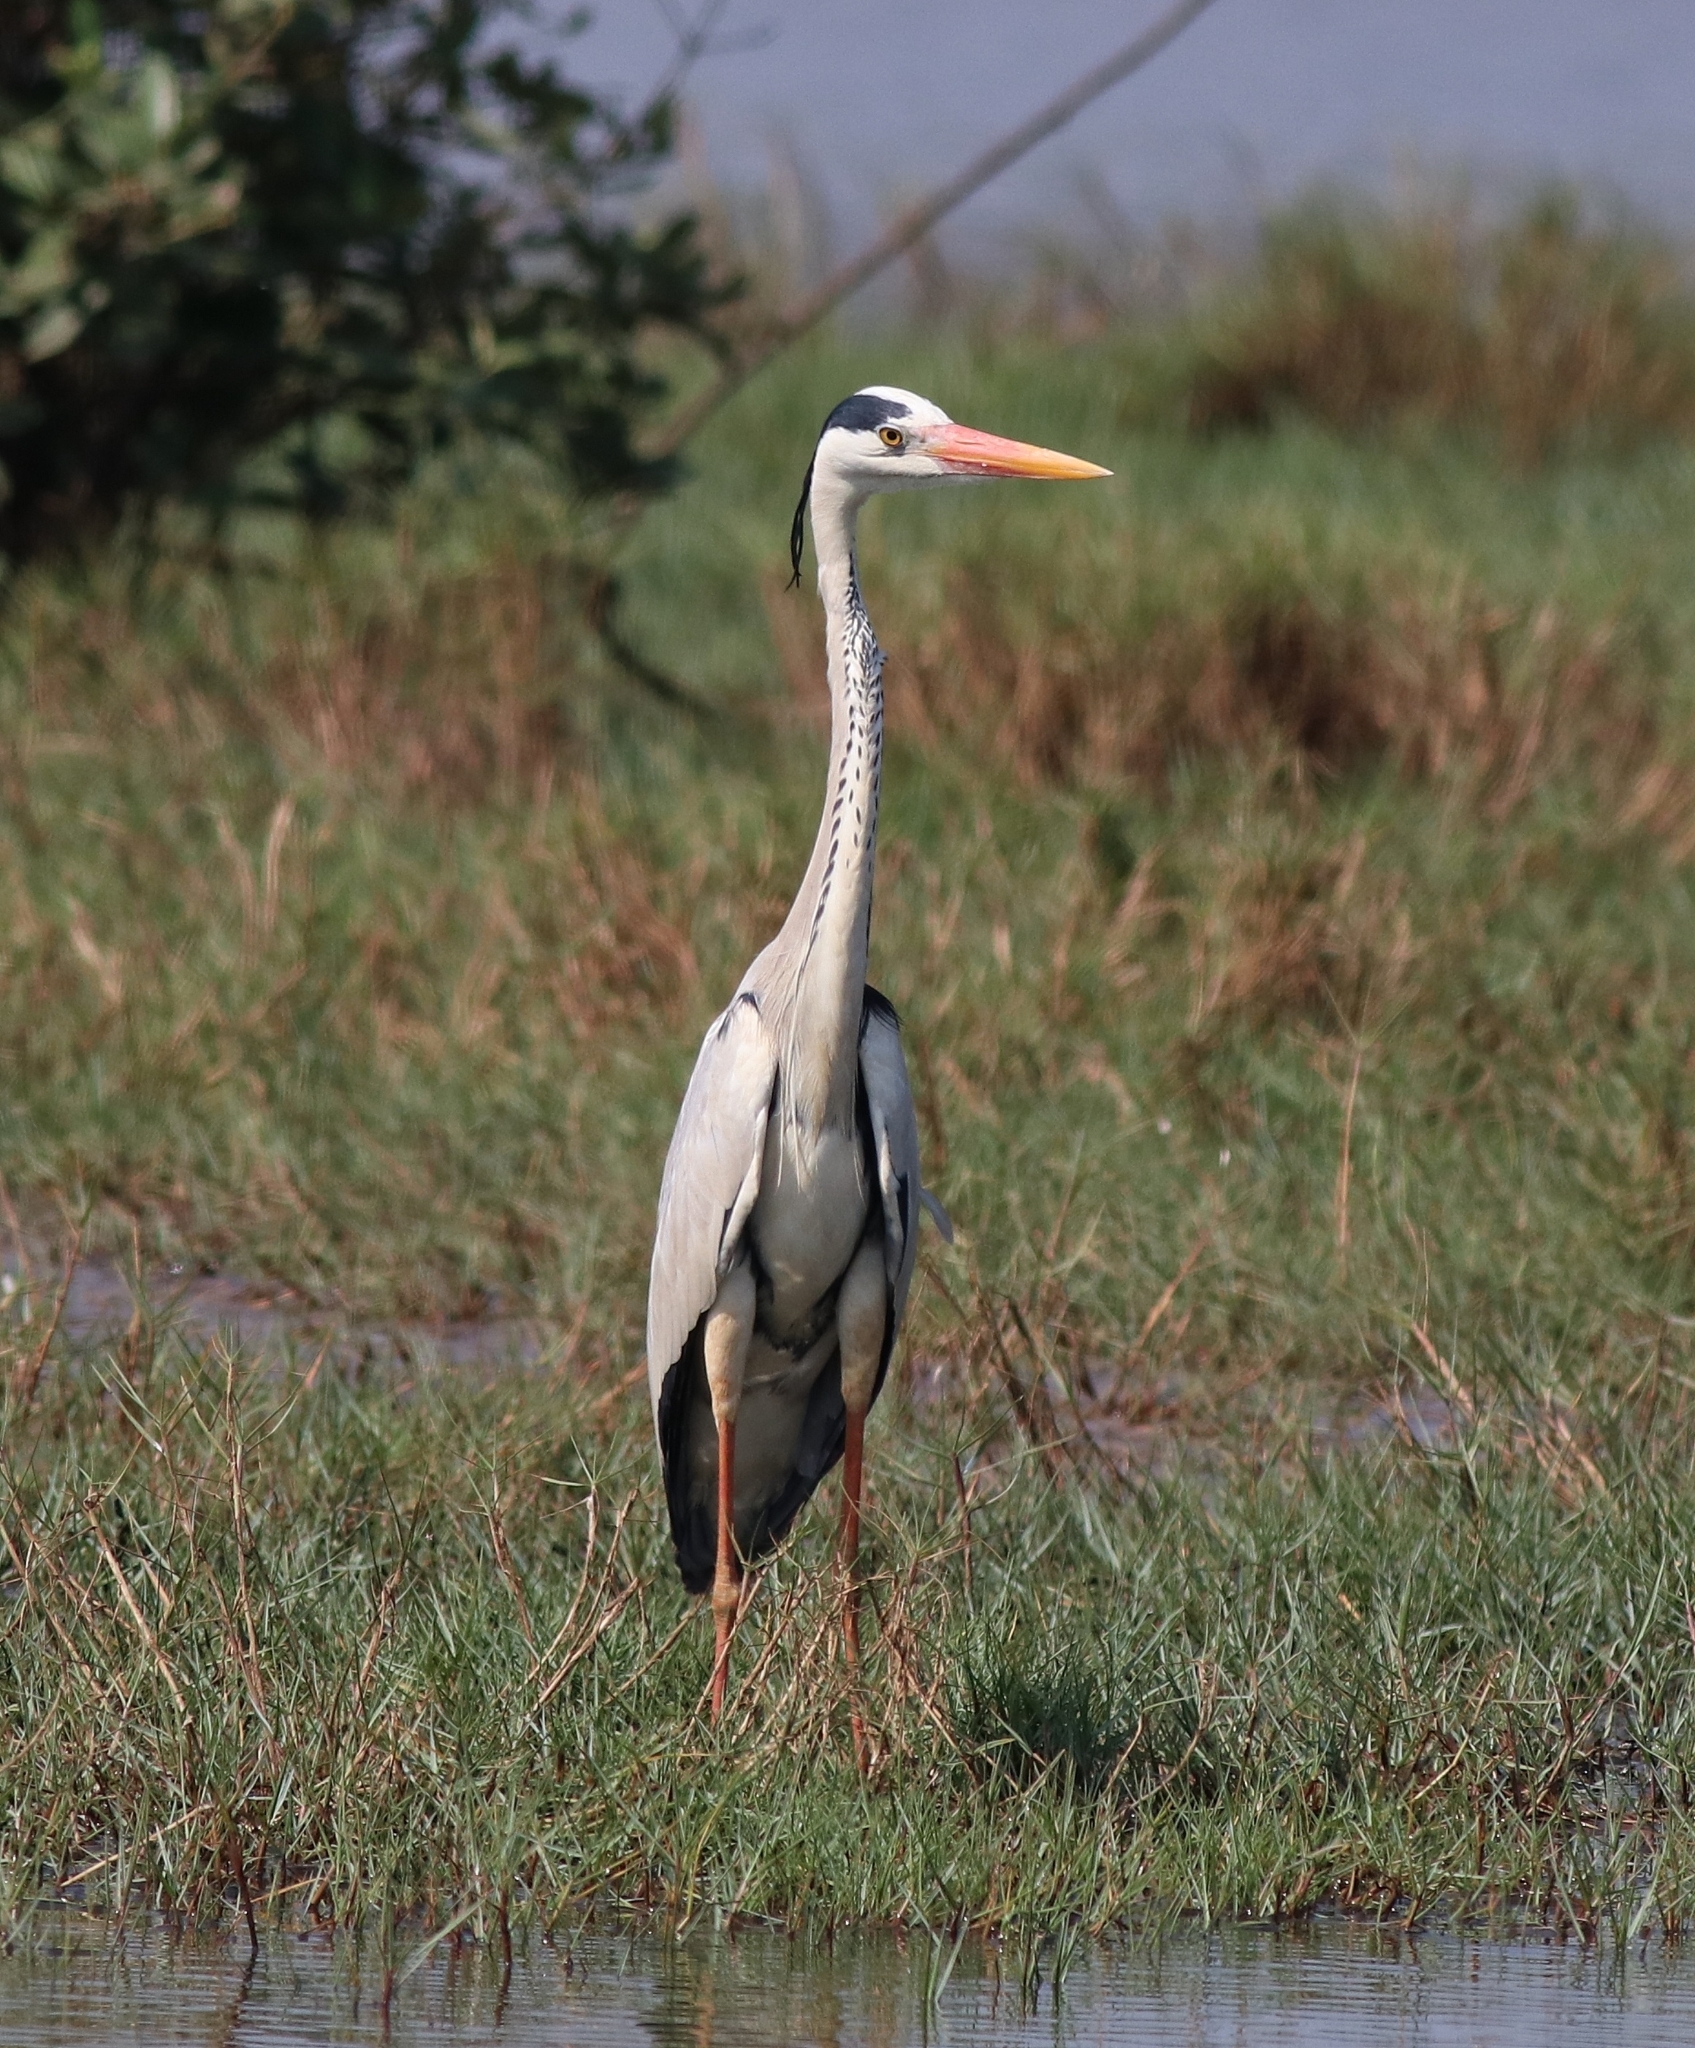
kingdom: Animalia
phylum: Chordata
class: Aves
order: Pelecaniformes
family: Ardeidae
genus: Ardea
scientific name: Ardea cinerea
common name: Grey heron
